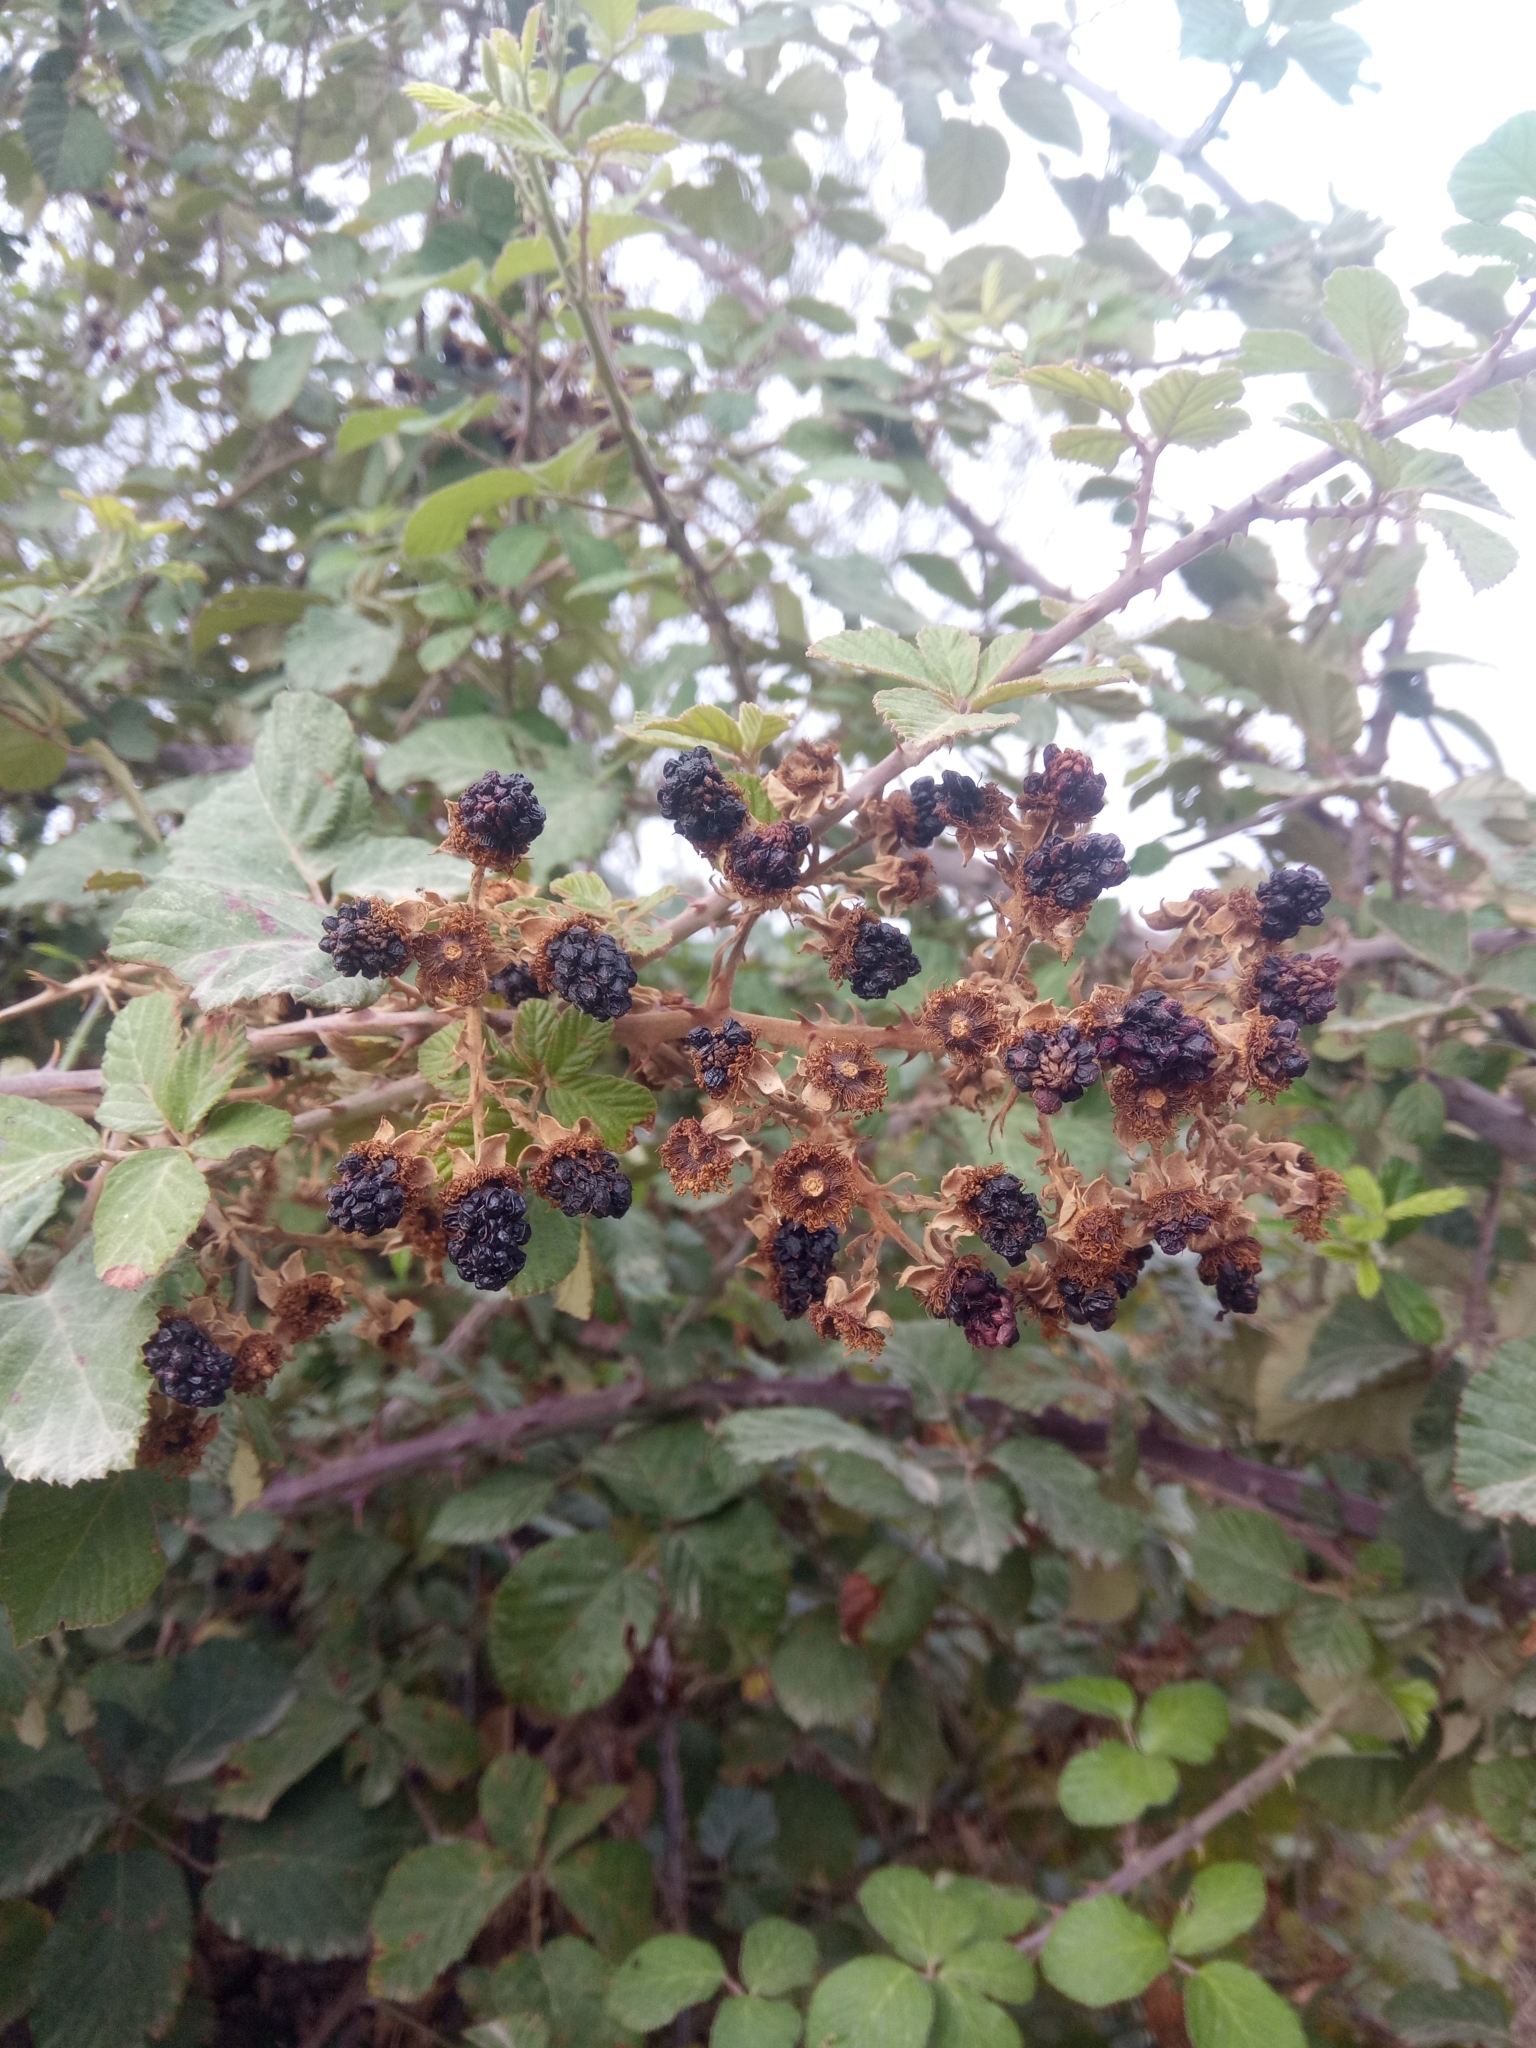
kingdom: Plantae
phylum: Tracheophyta
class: Magnoliopsida
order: Rosales
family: Rosaceae
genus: Rubus
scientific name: Rubus ulmifolius
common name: Elmleaf blackberry
